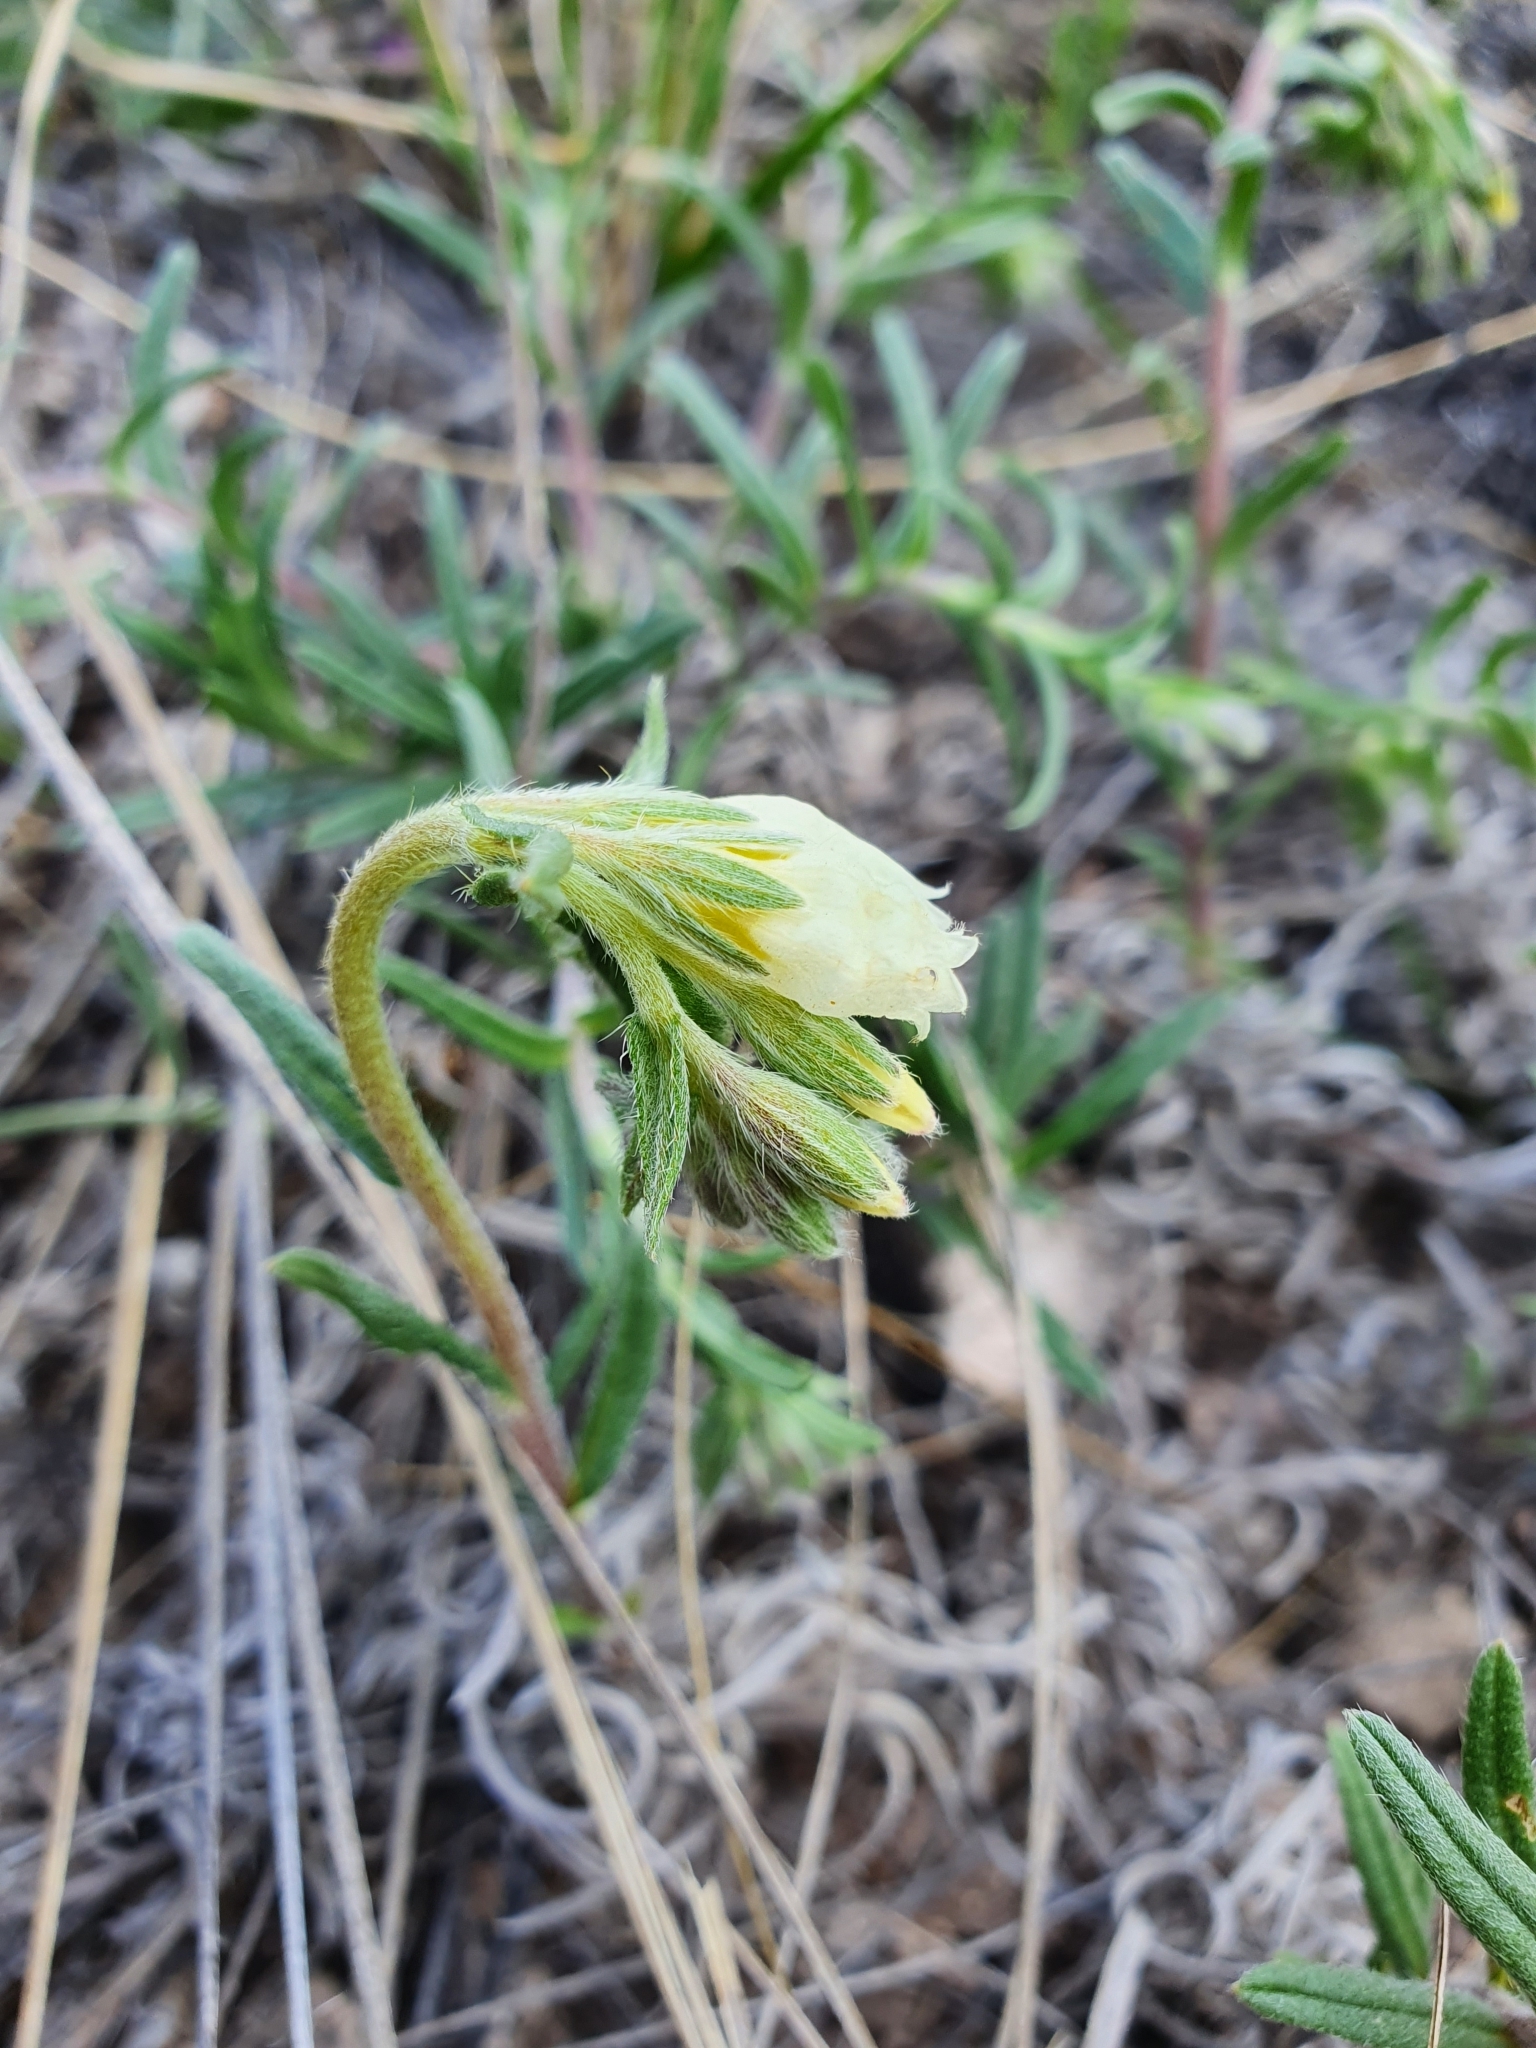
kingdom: Plantae
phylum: Tracheophyta
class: Magnoliopsida
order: Boraginales
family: Boraginaceae
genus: Onosma
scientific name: Onosma simplicissima
